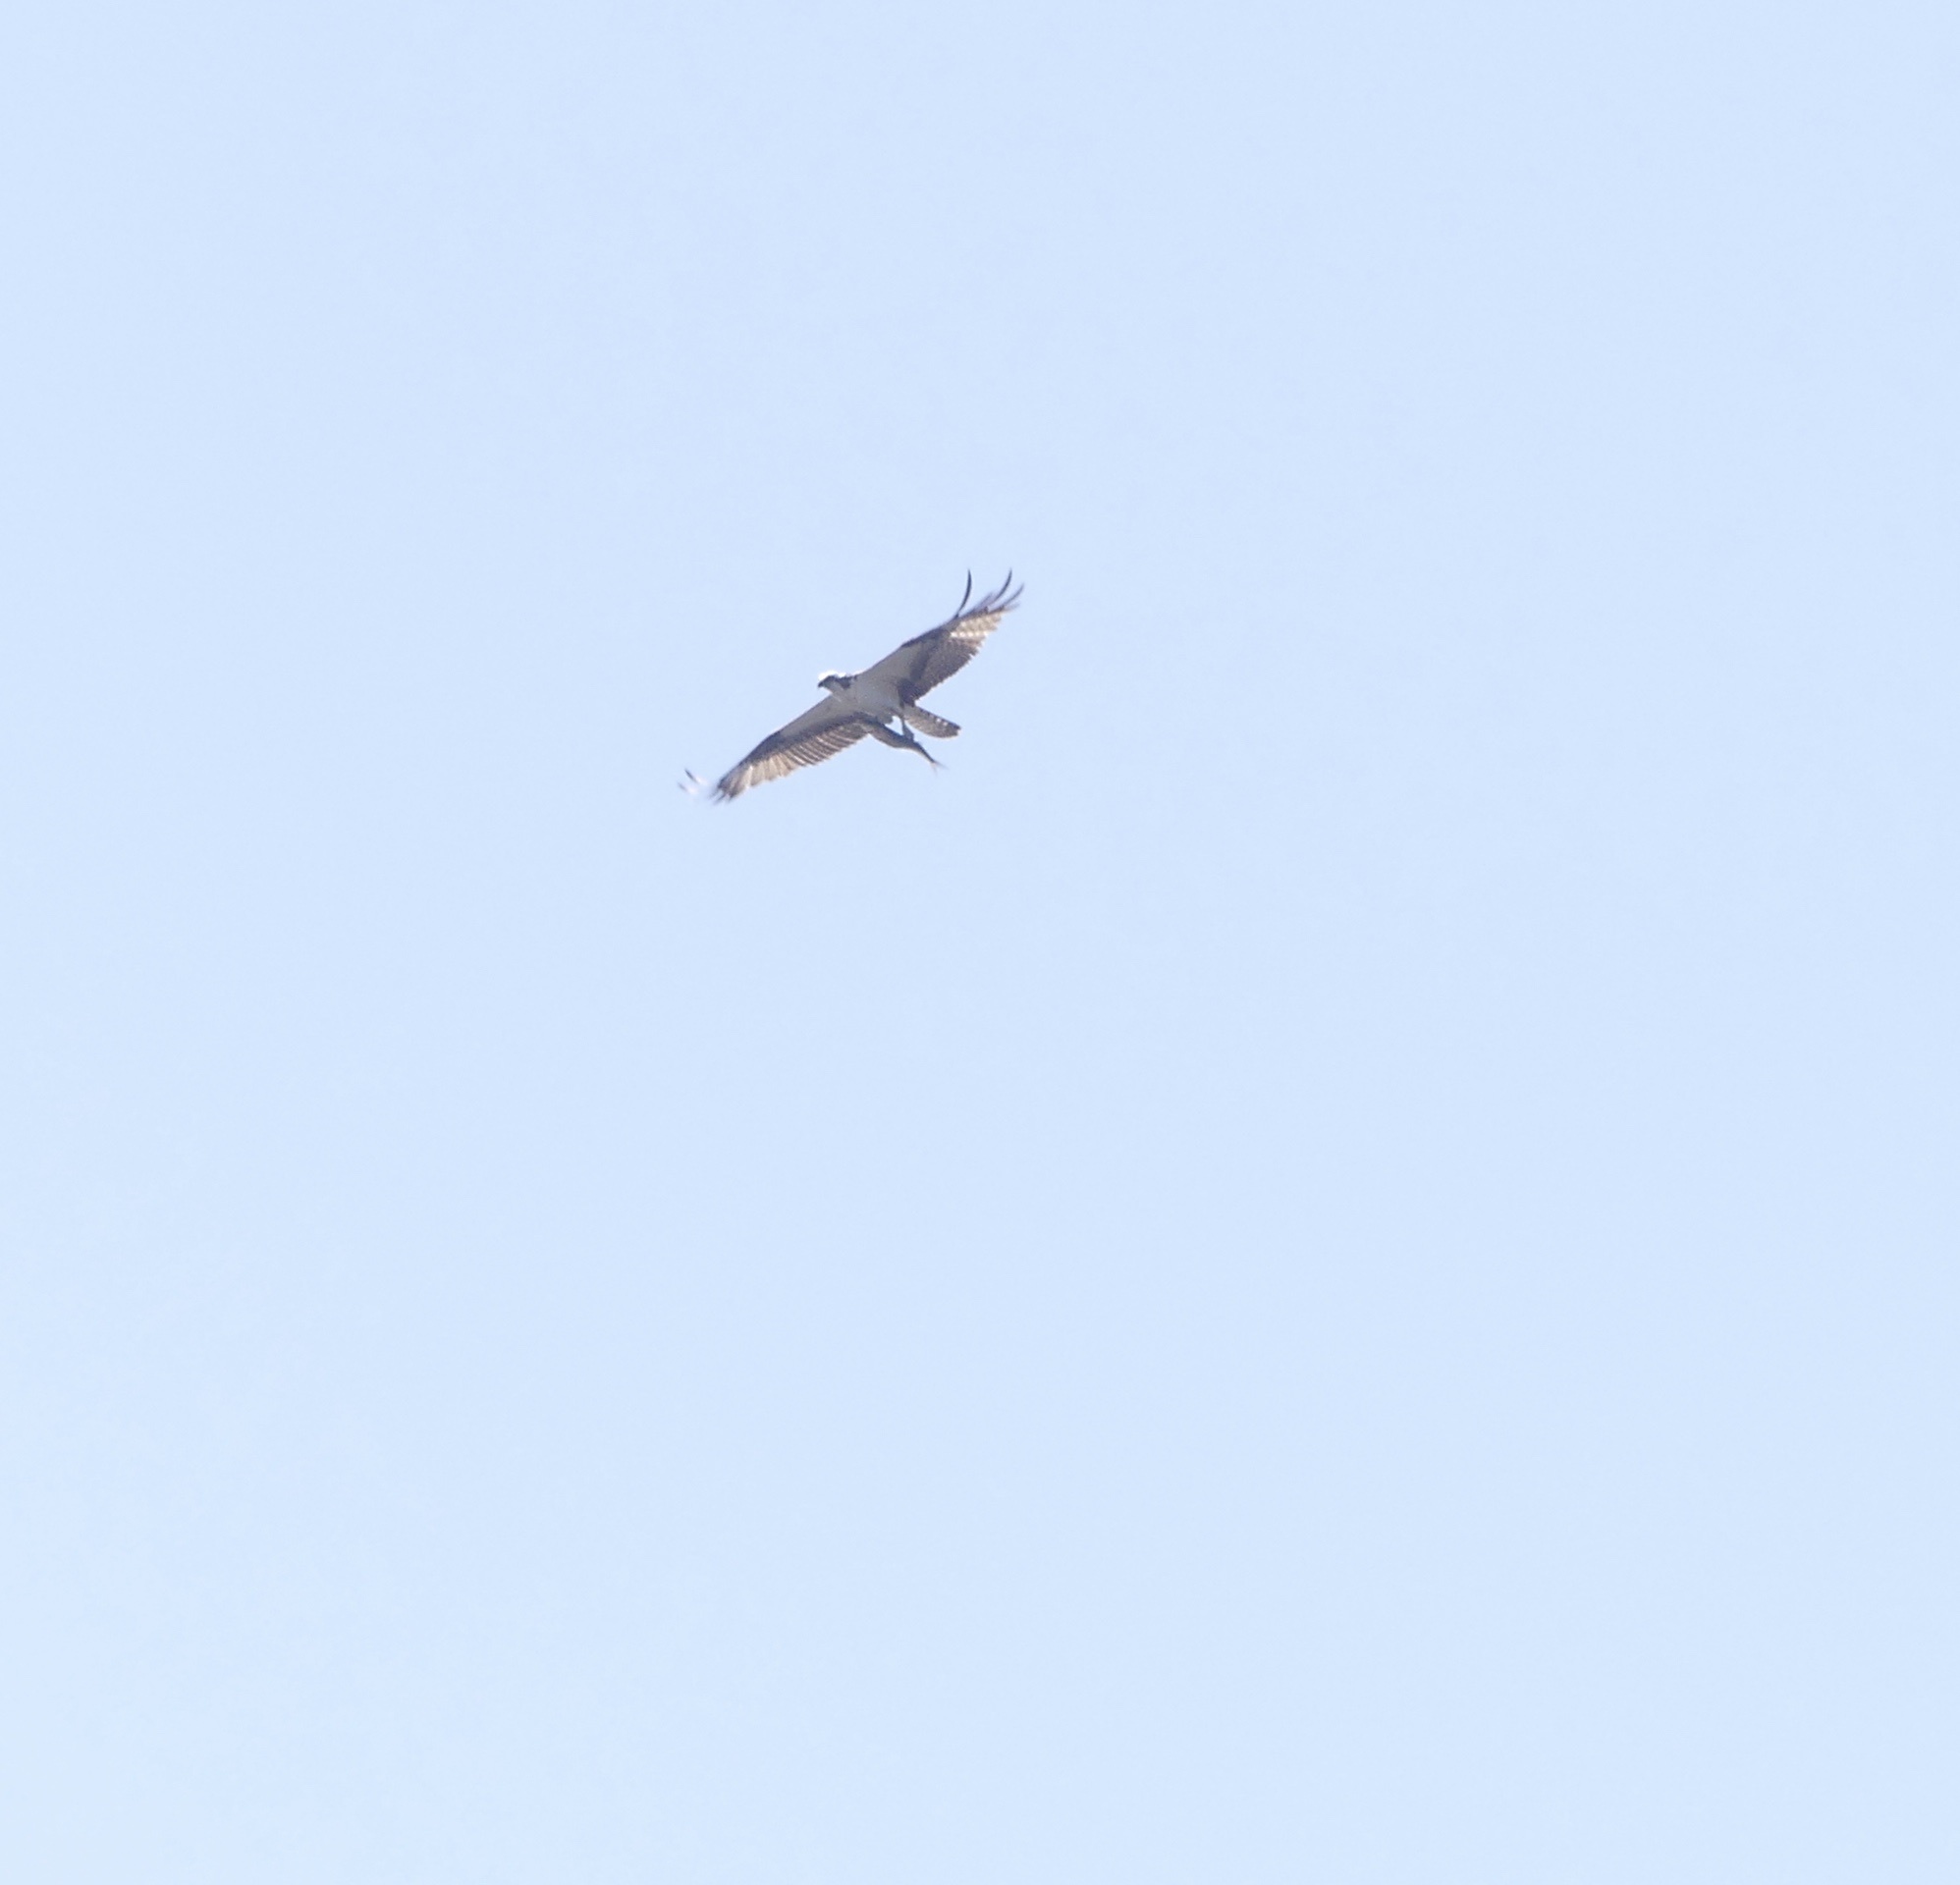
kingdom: Animalia
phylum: Chordata
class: Aves
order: Accipitriformes
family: Pandionidae
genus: Pandion
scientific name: Pandion haliaetus
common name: Osprey
